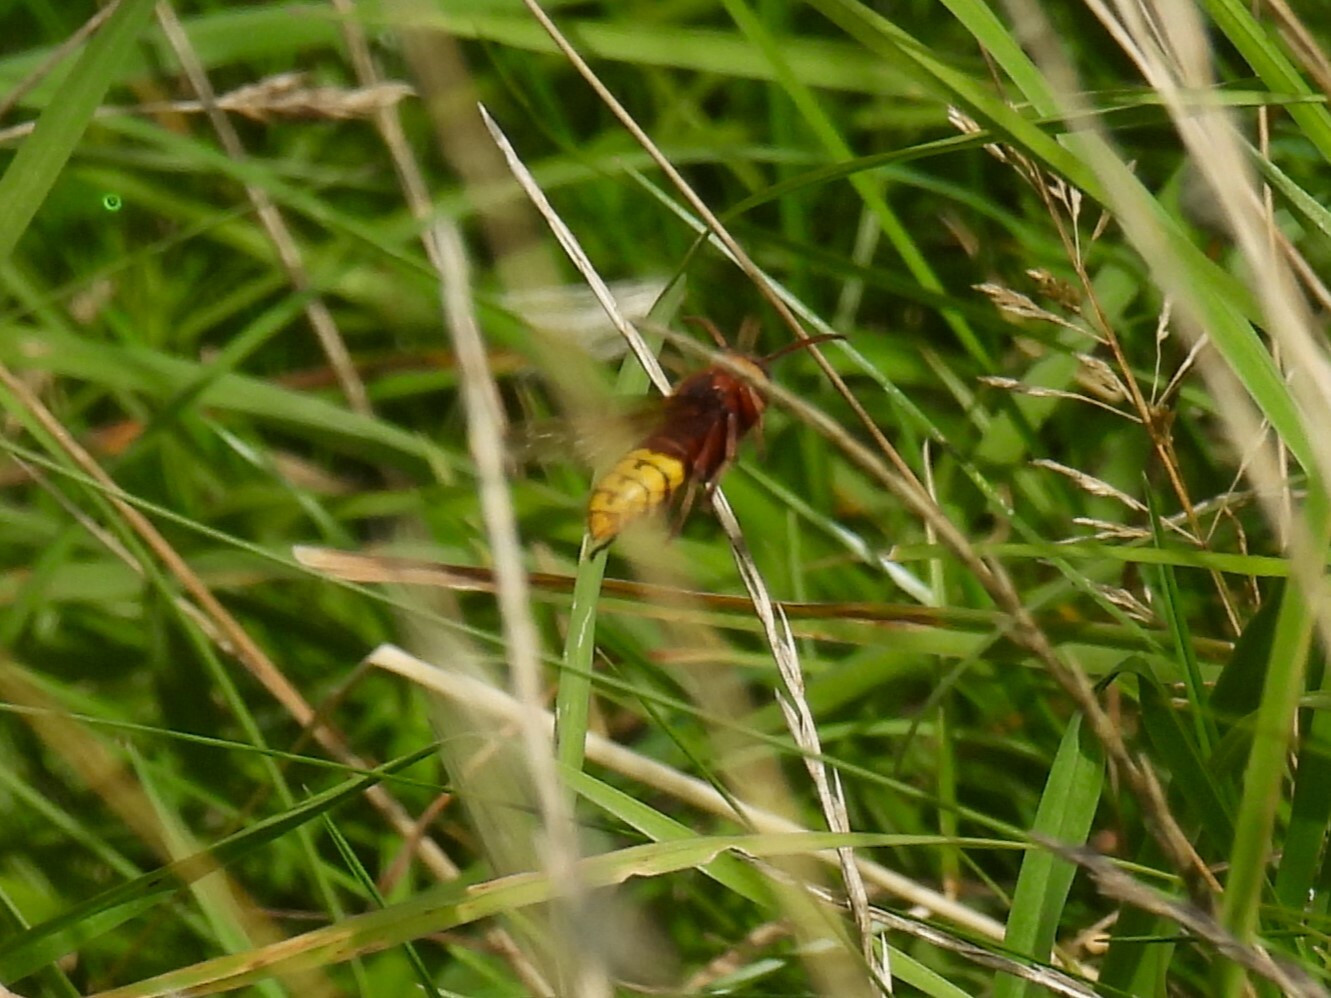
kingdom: Animalia
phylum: Arthropoda
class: Insecta
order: Hymenoptera
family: Vespidae
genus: Vespa
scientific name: Vespa crabro
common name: Hornet
